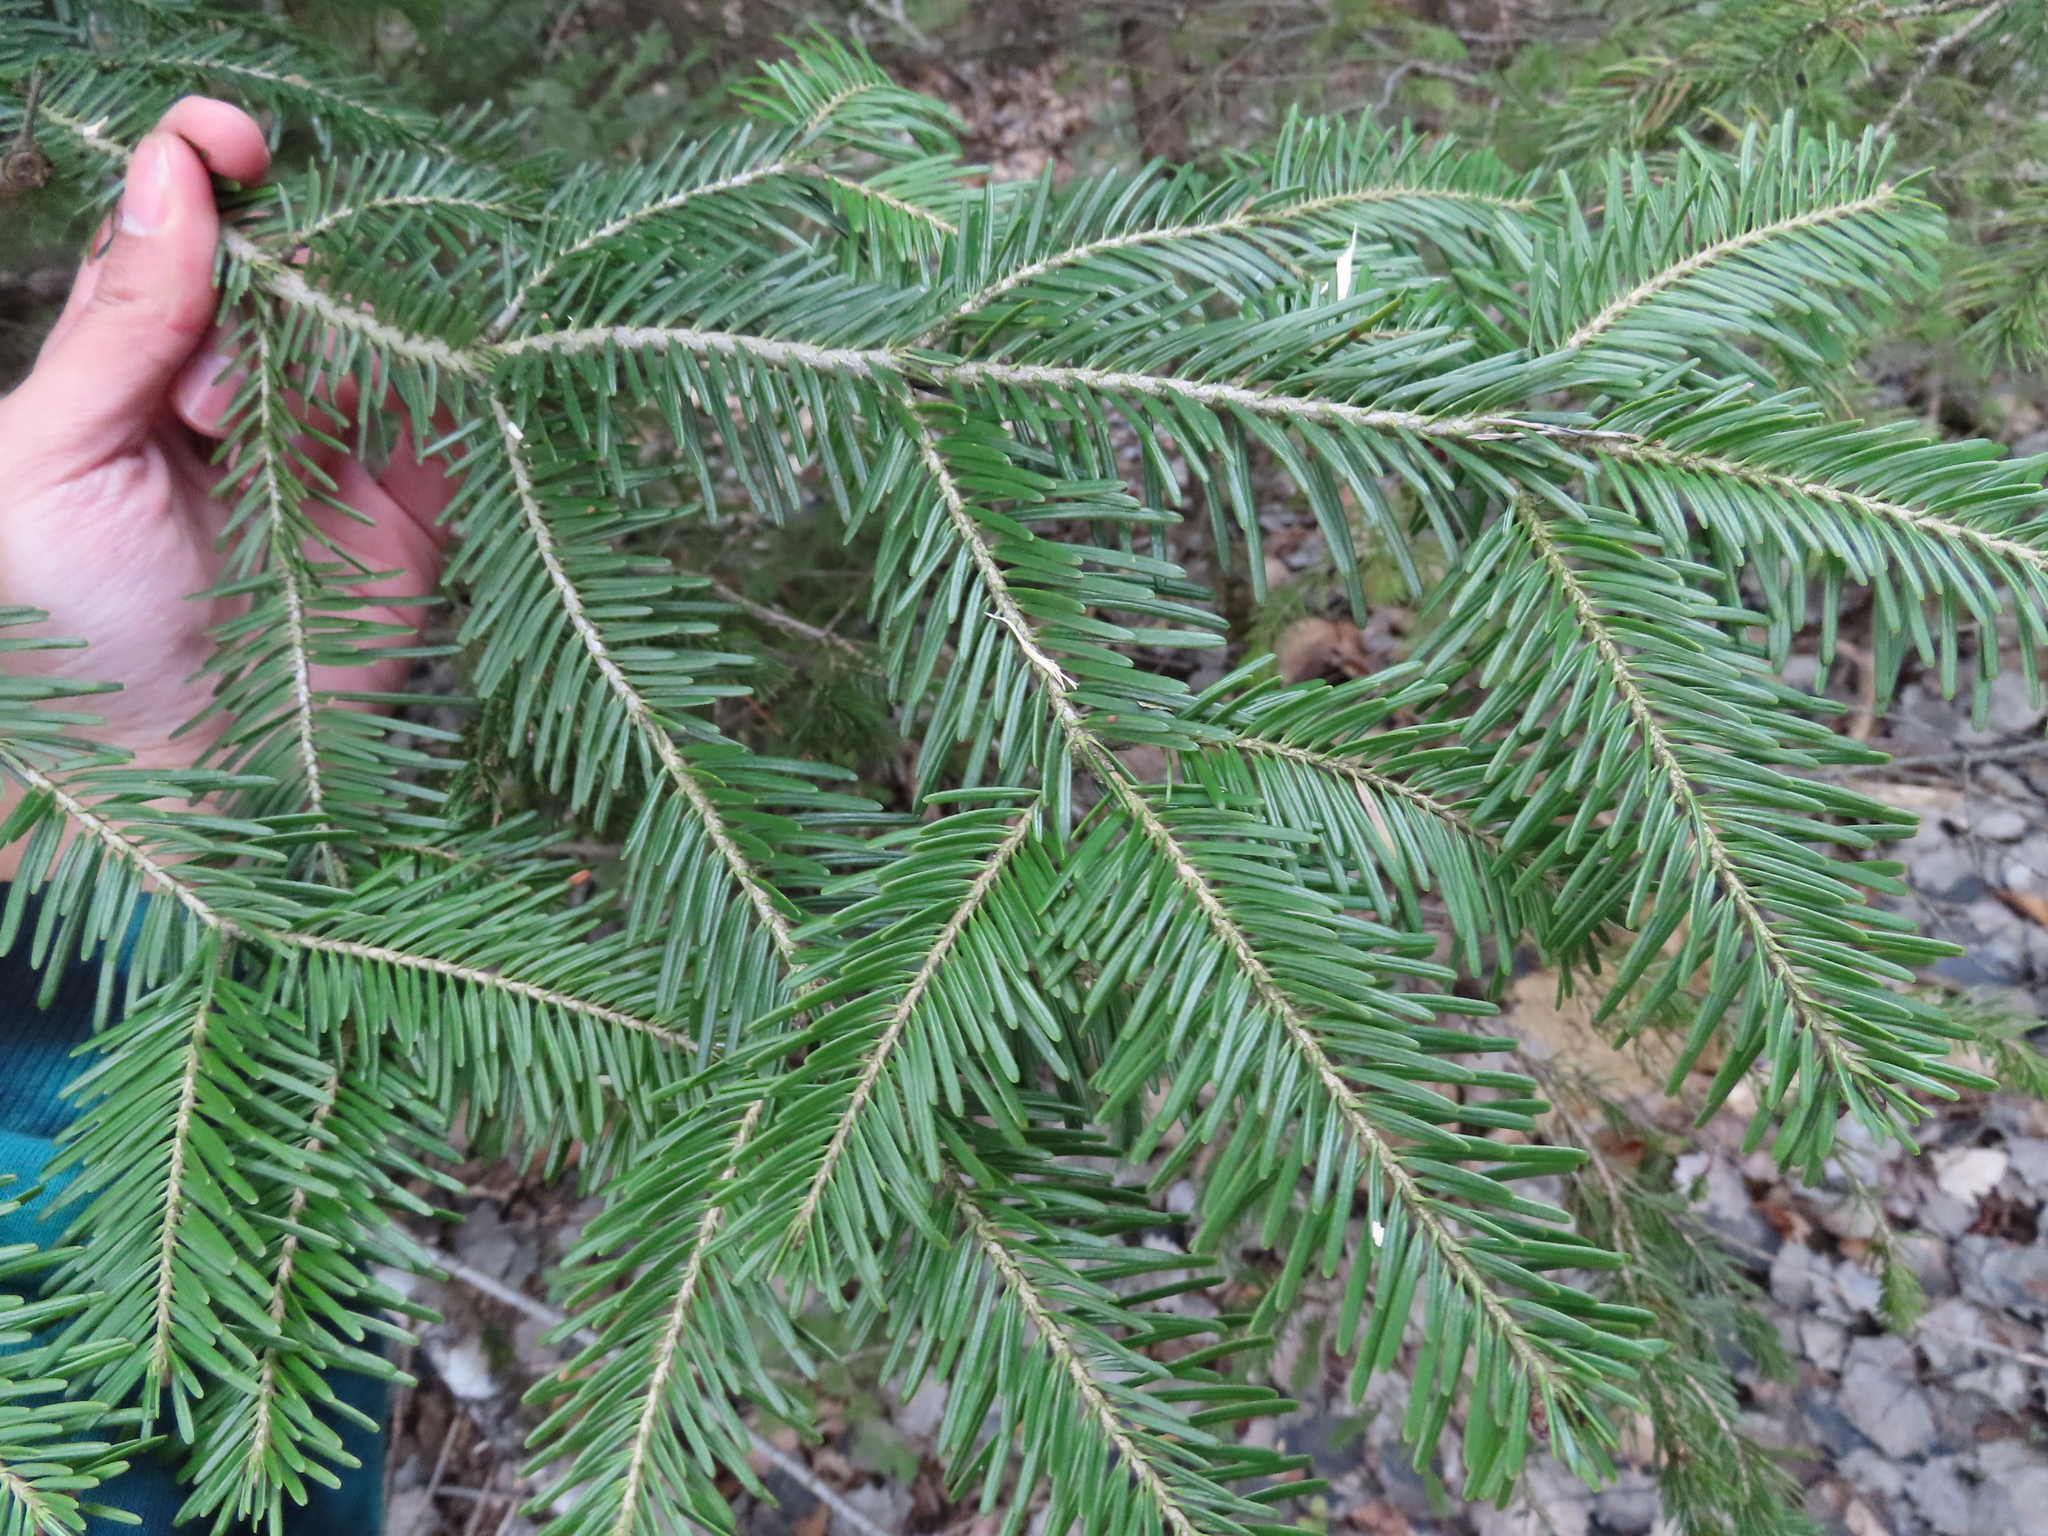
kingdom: Plantae
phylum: Tracheophyta
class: Pinopsida
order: Pinales
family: Pinaceae
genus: Abies
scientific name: Abies alba
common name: Silver fir
